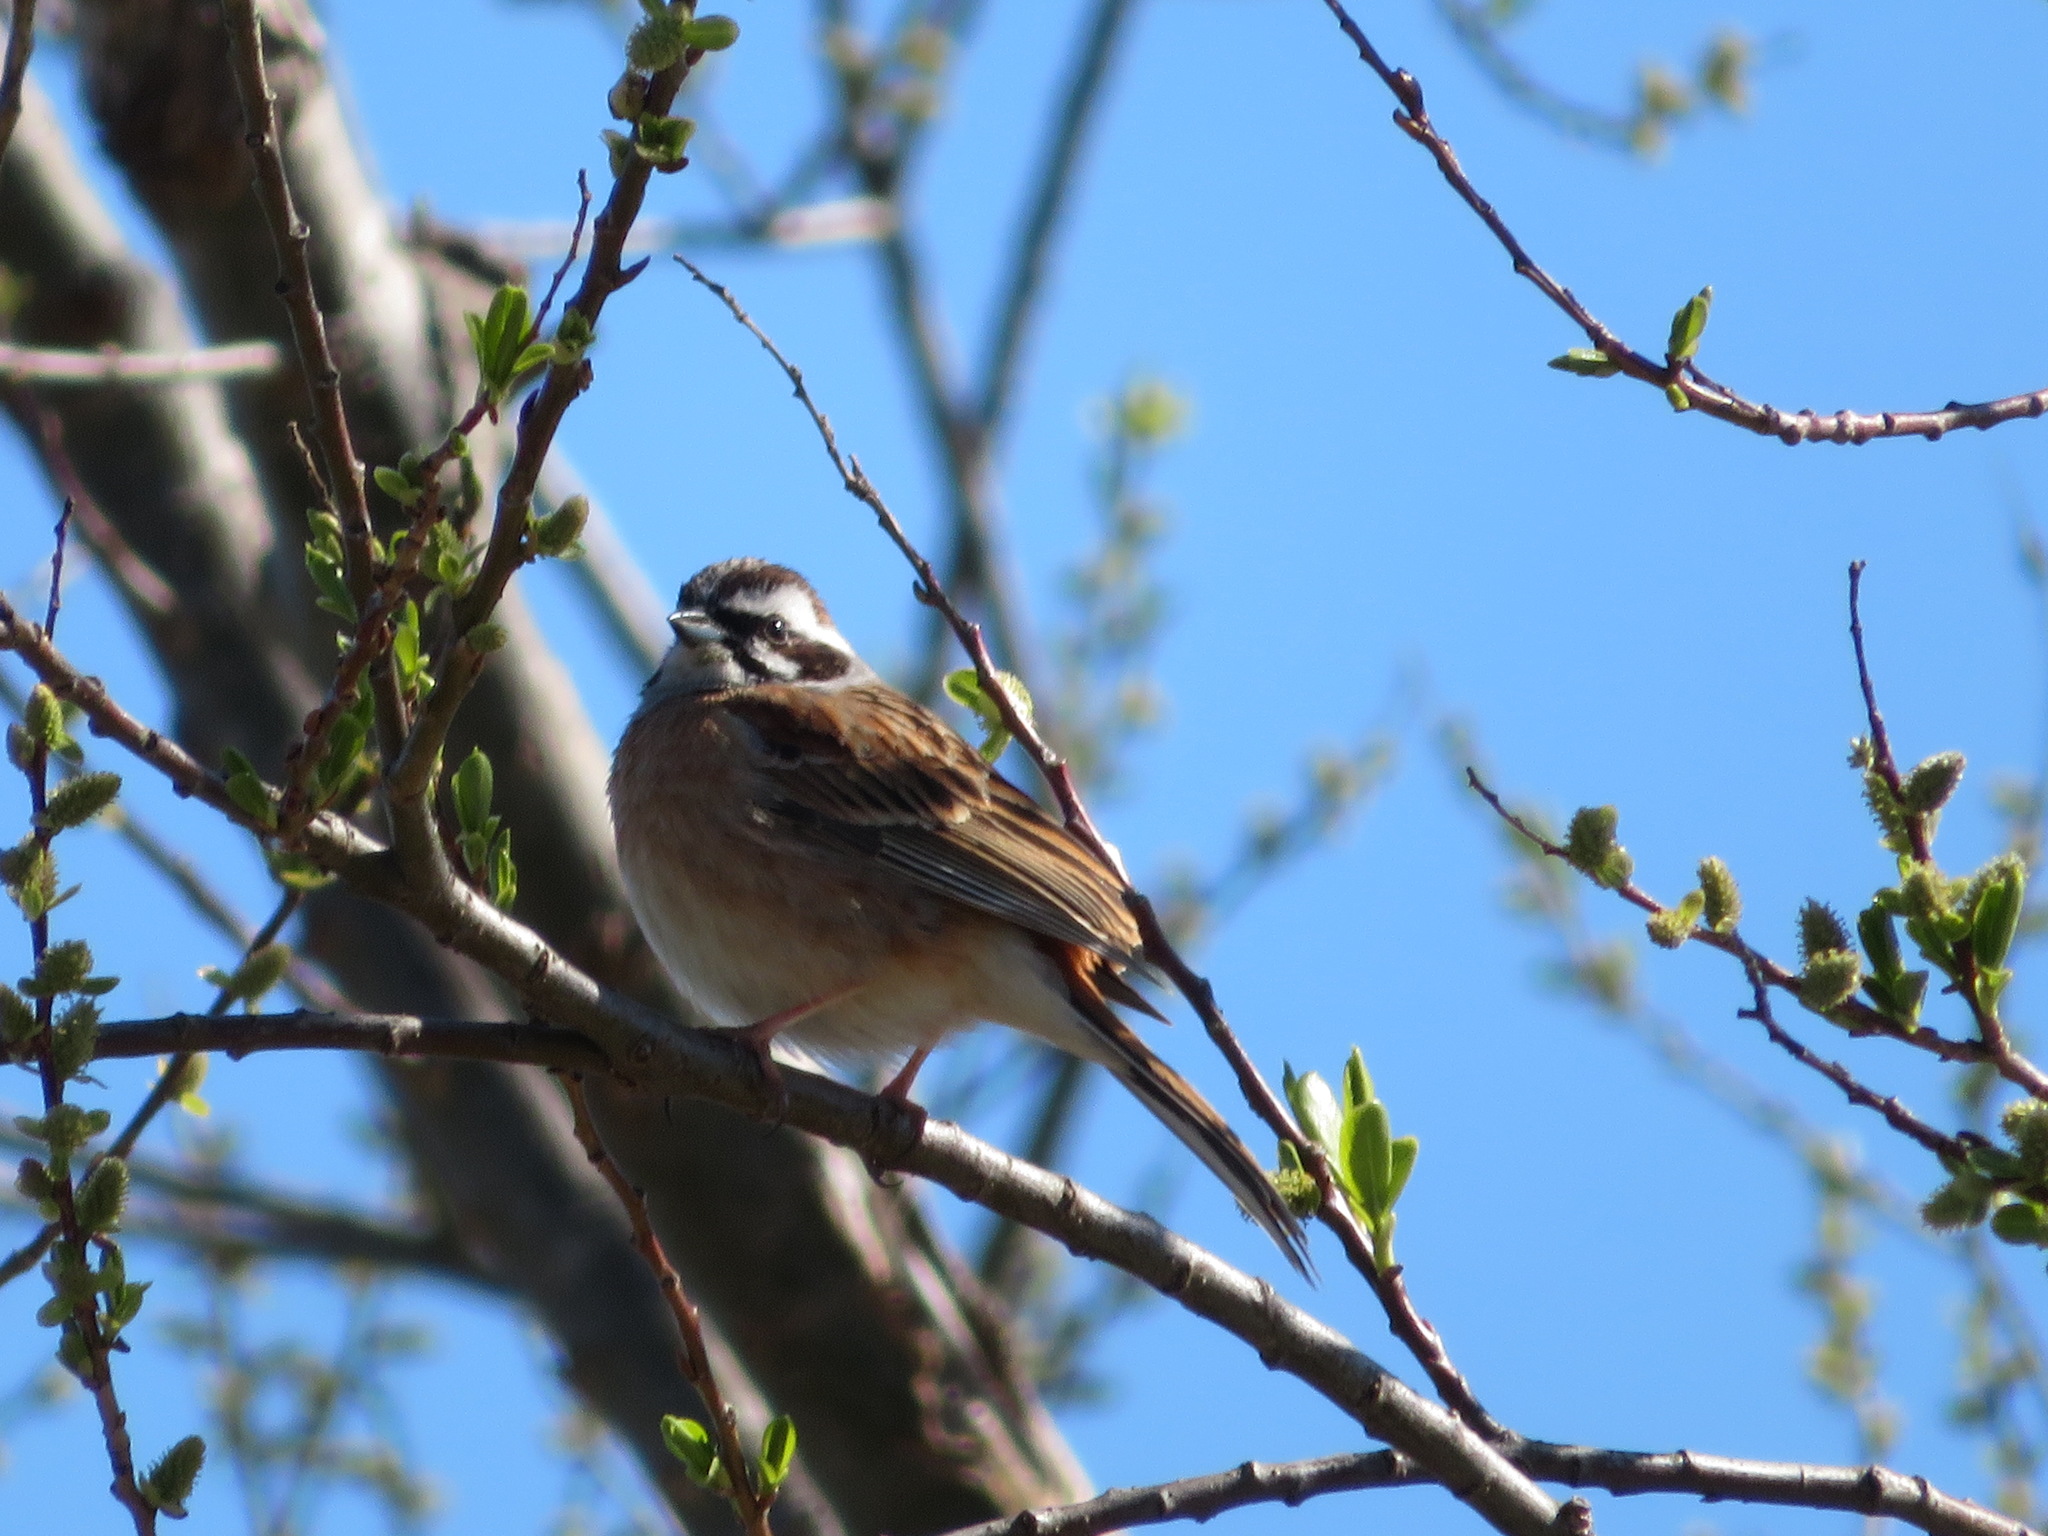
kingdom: Animalia
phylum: Chordata
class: Aves
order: Passeriformes
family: Emberizidae
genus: Emberiza
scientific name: Emberiza cioides
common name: Meadow bunting
